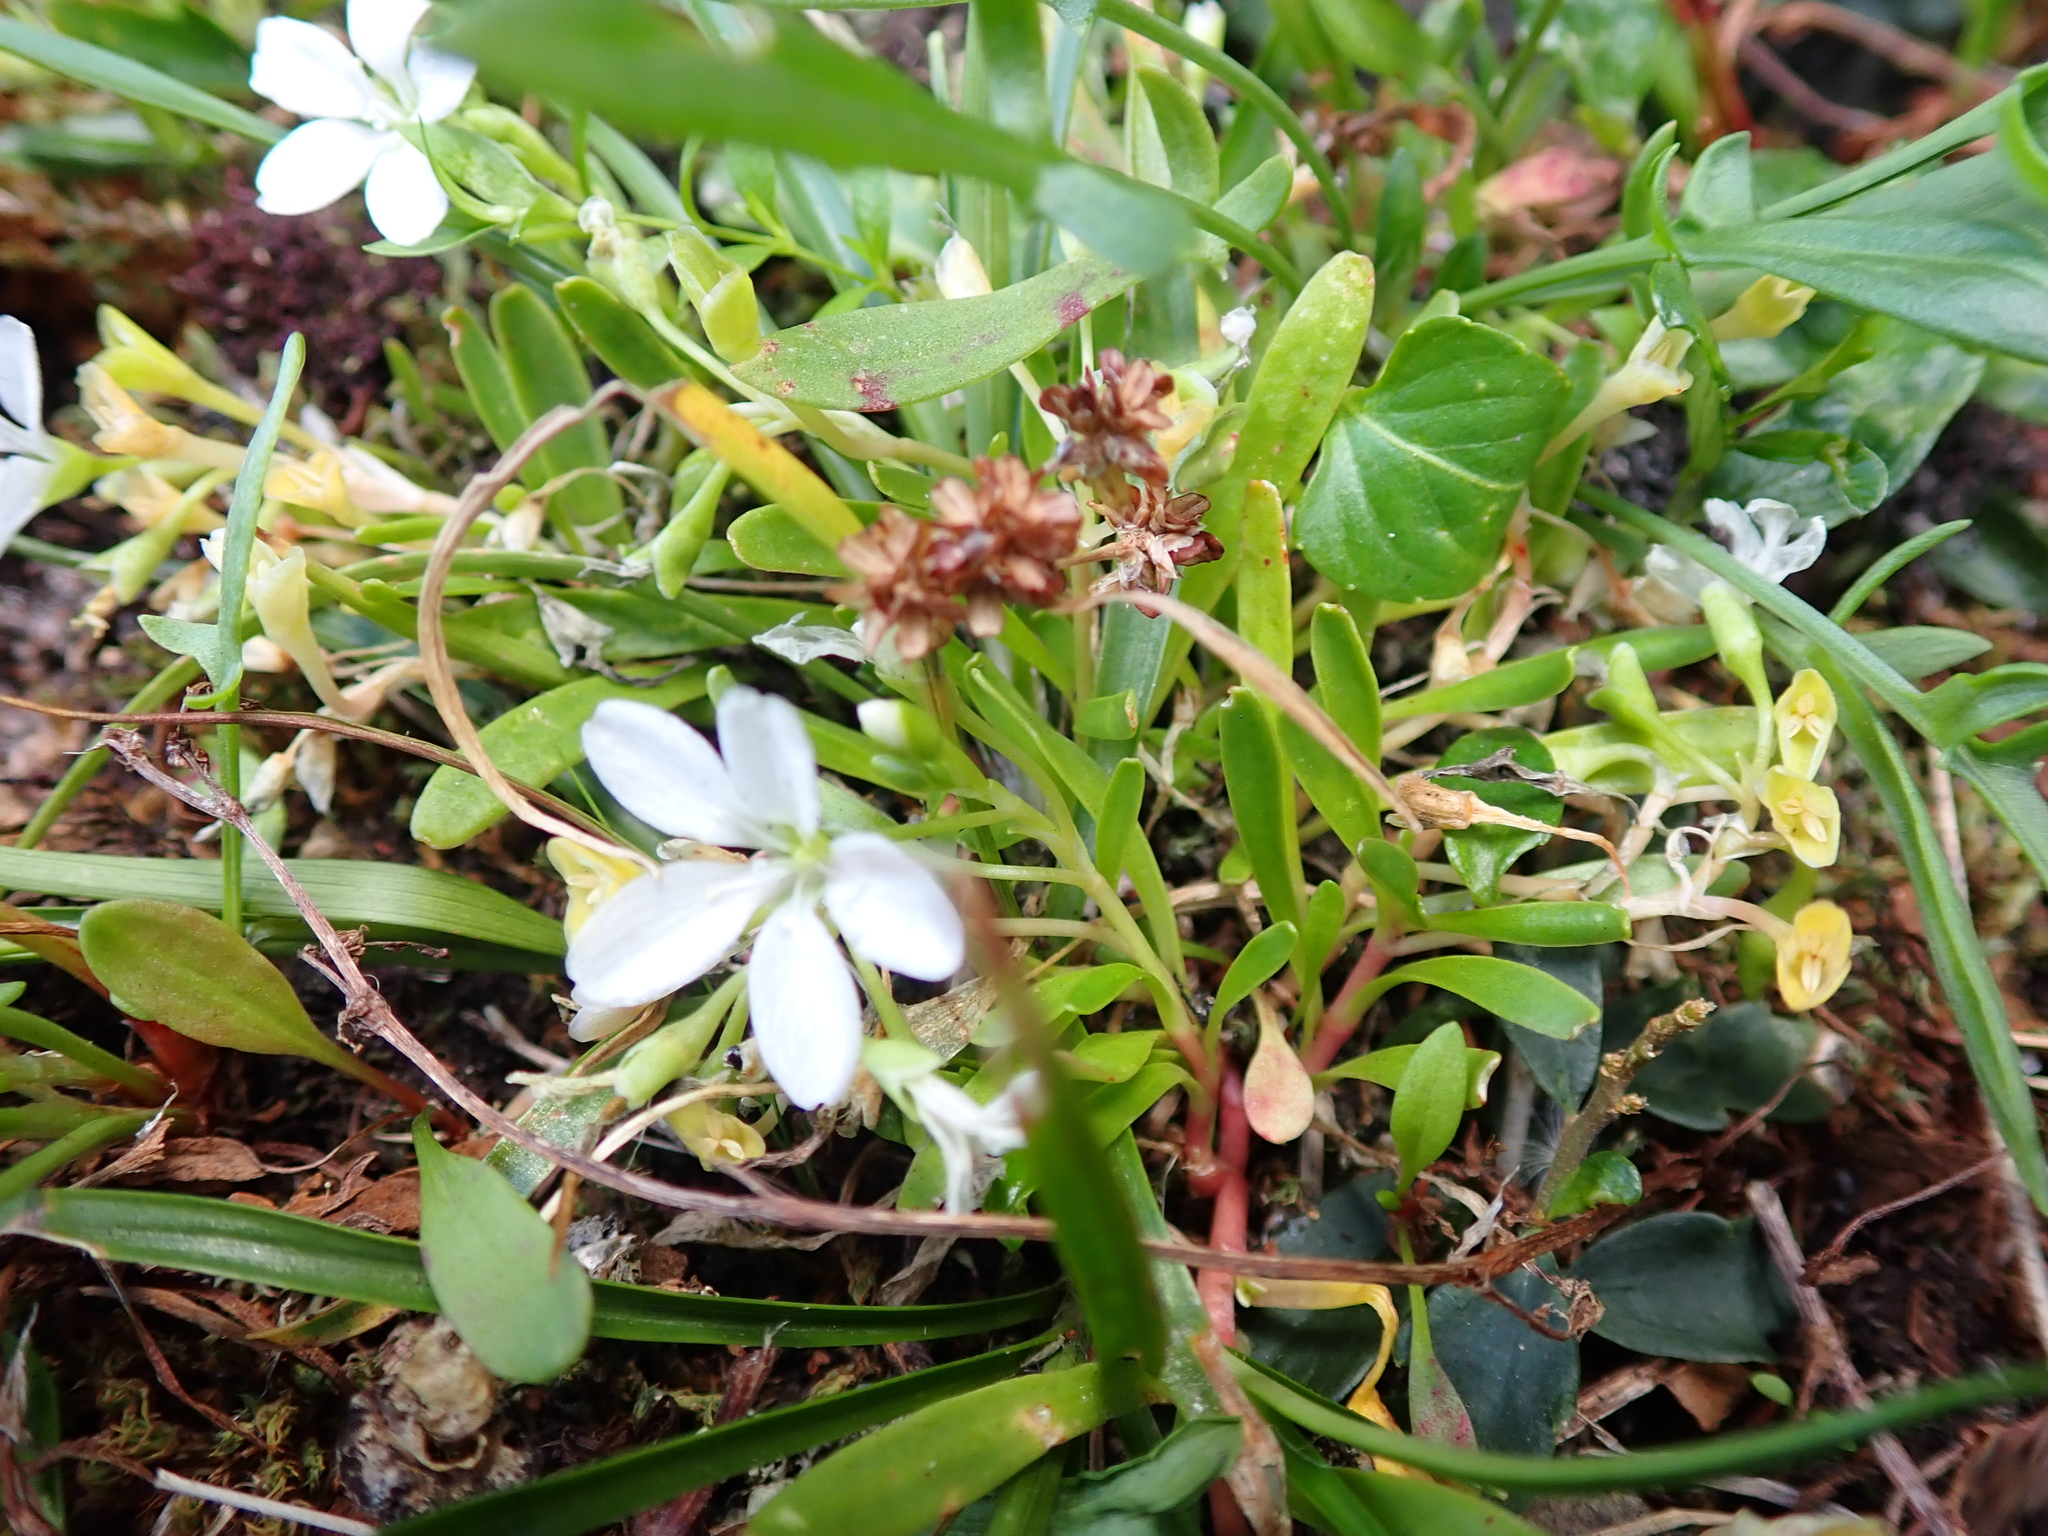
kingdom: Plantae
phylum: Tracheophyta
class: Magnoliopsida
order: Caryophyllales
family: Montiaceae
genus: Montia
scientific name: Montia australasica
